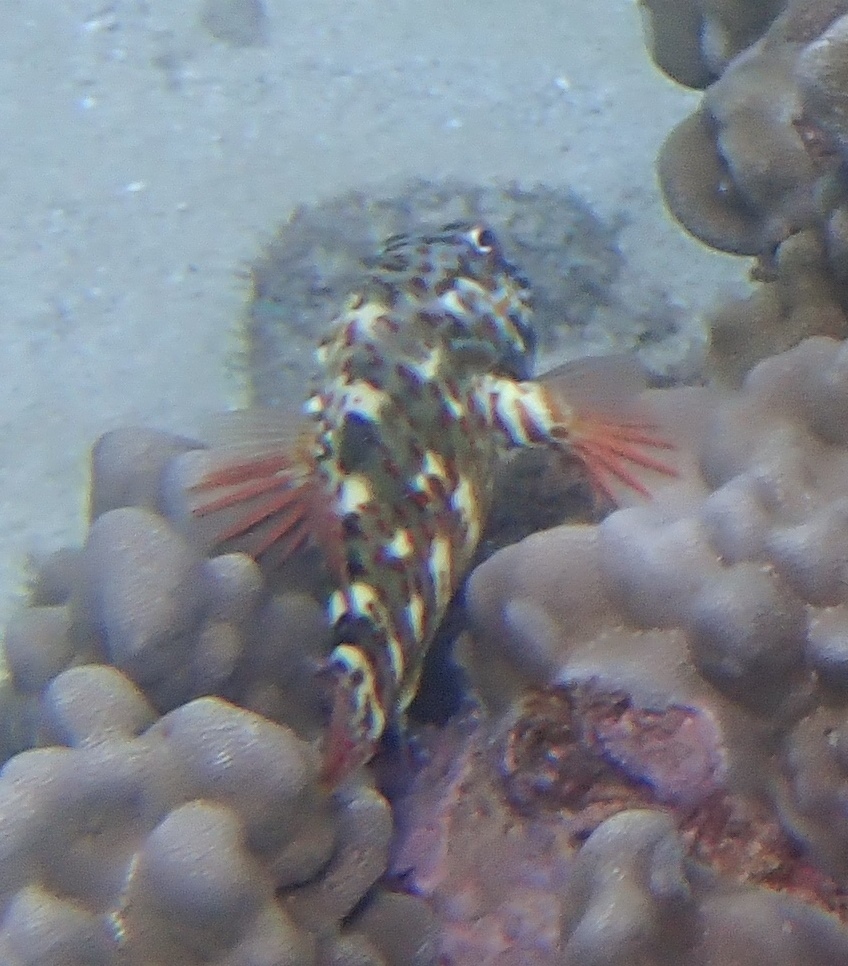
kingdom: Animalia
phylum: Chordata
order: Perciformes
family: Cirrhitidae
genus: Cirrhitus
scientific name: Cirrhitus pinnulatus
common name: Stocky hawkfish
